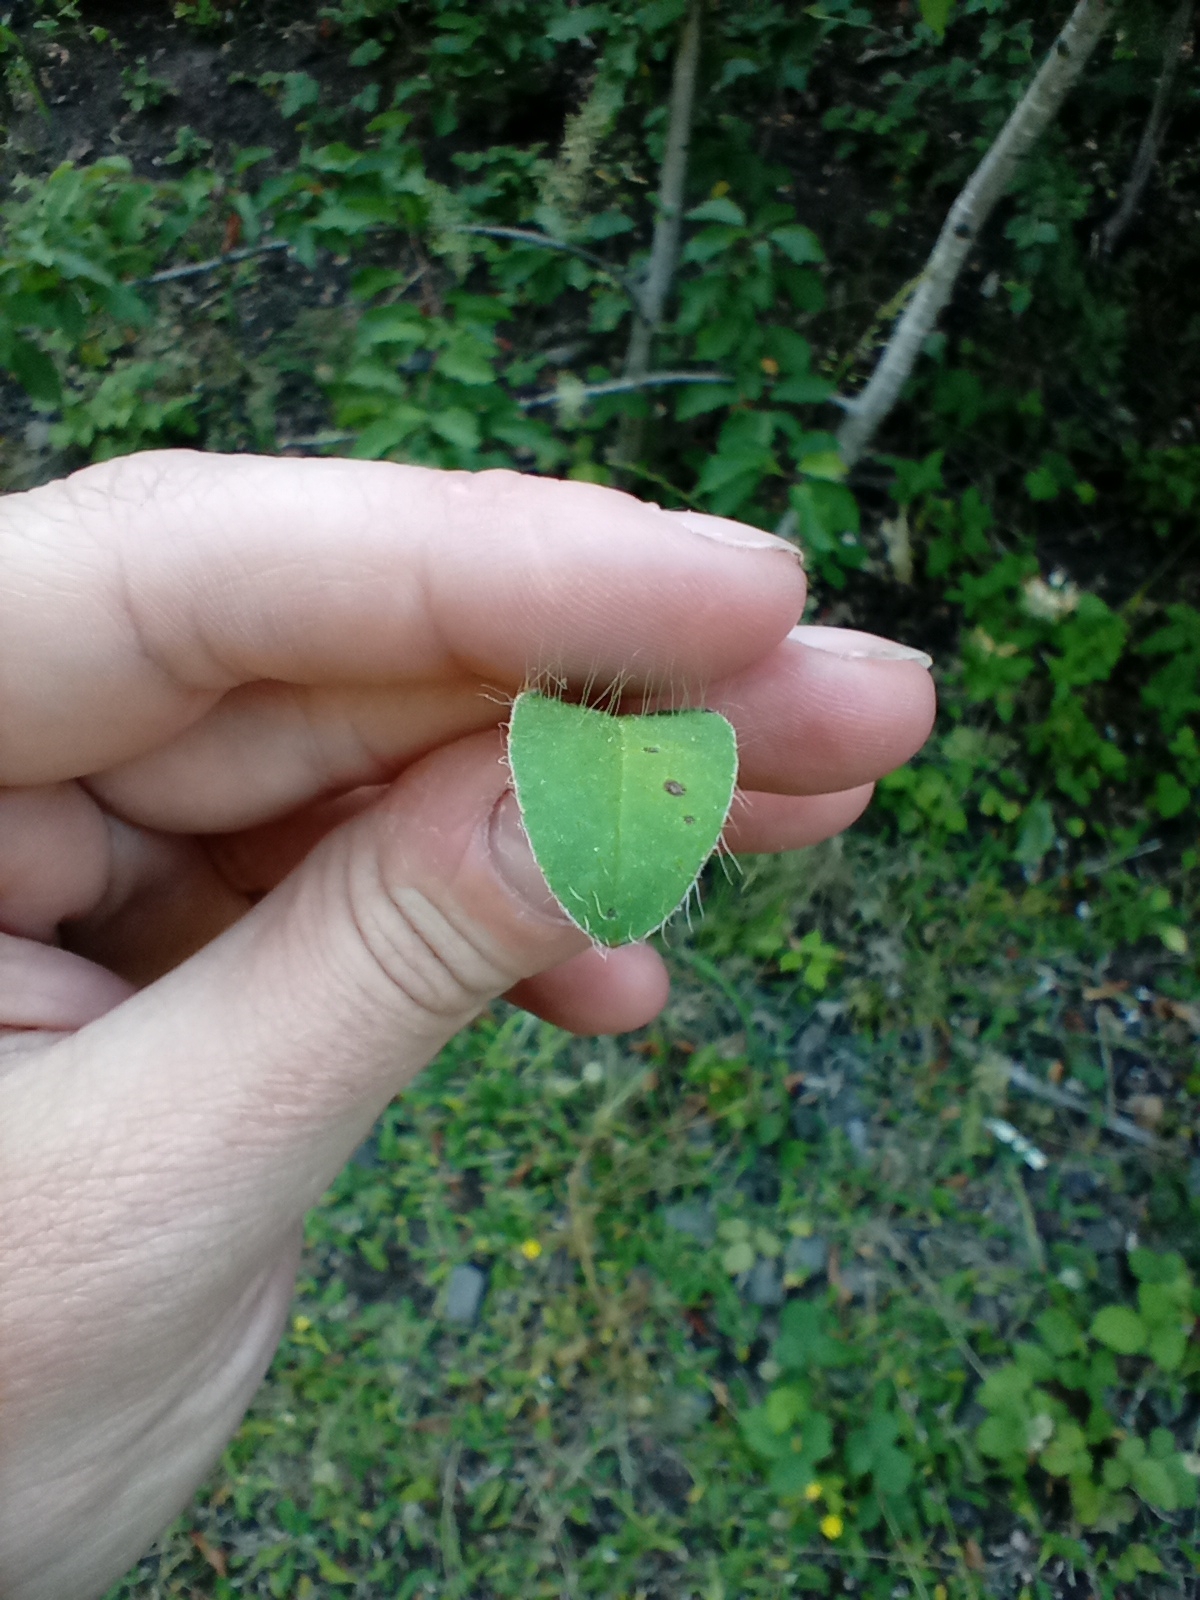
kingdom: Plantae
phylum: Tracheophyta
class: Magnoliopsida
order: Asterales
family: Asteraceae
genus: Pilosella
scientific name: Pilosella officinarum
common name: Mouse-ear hawkweed
